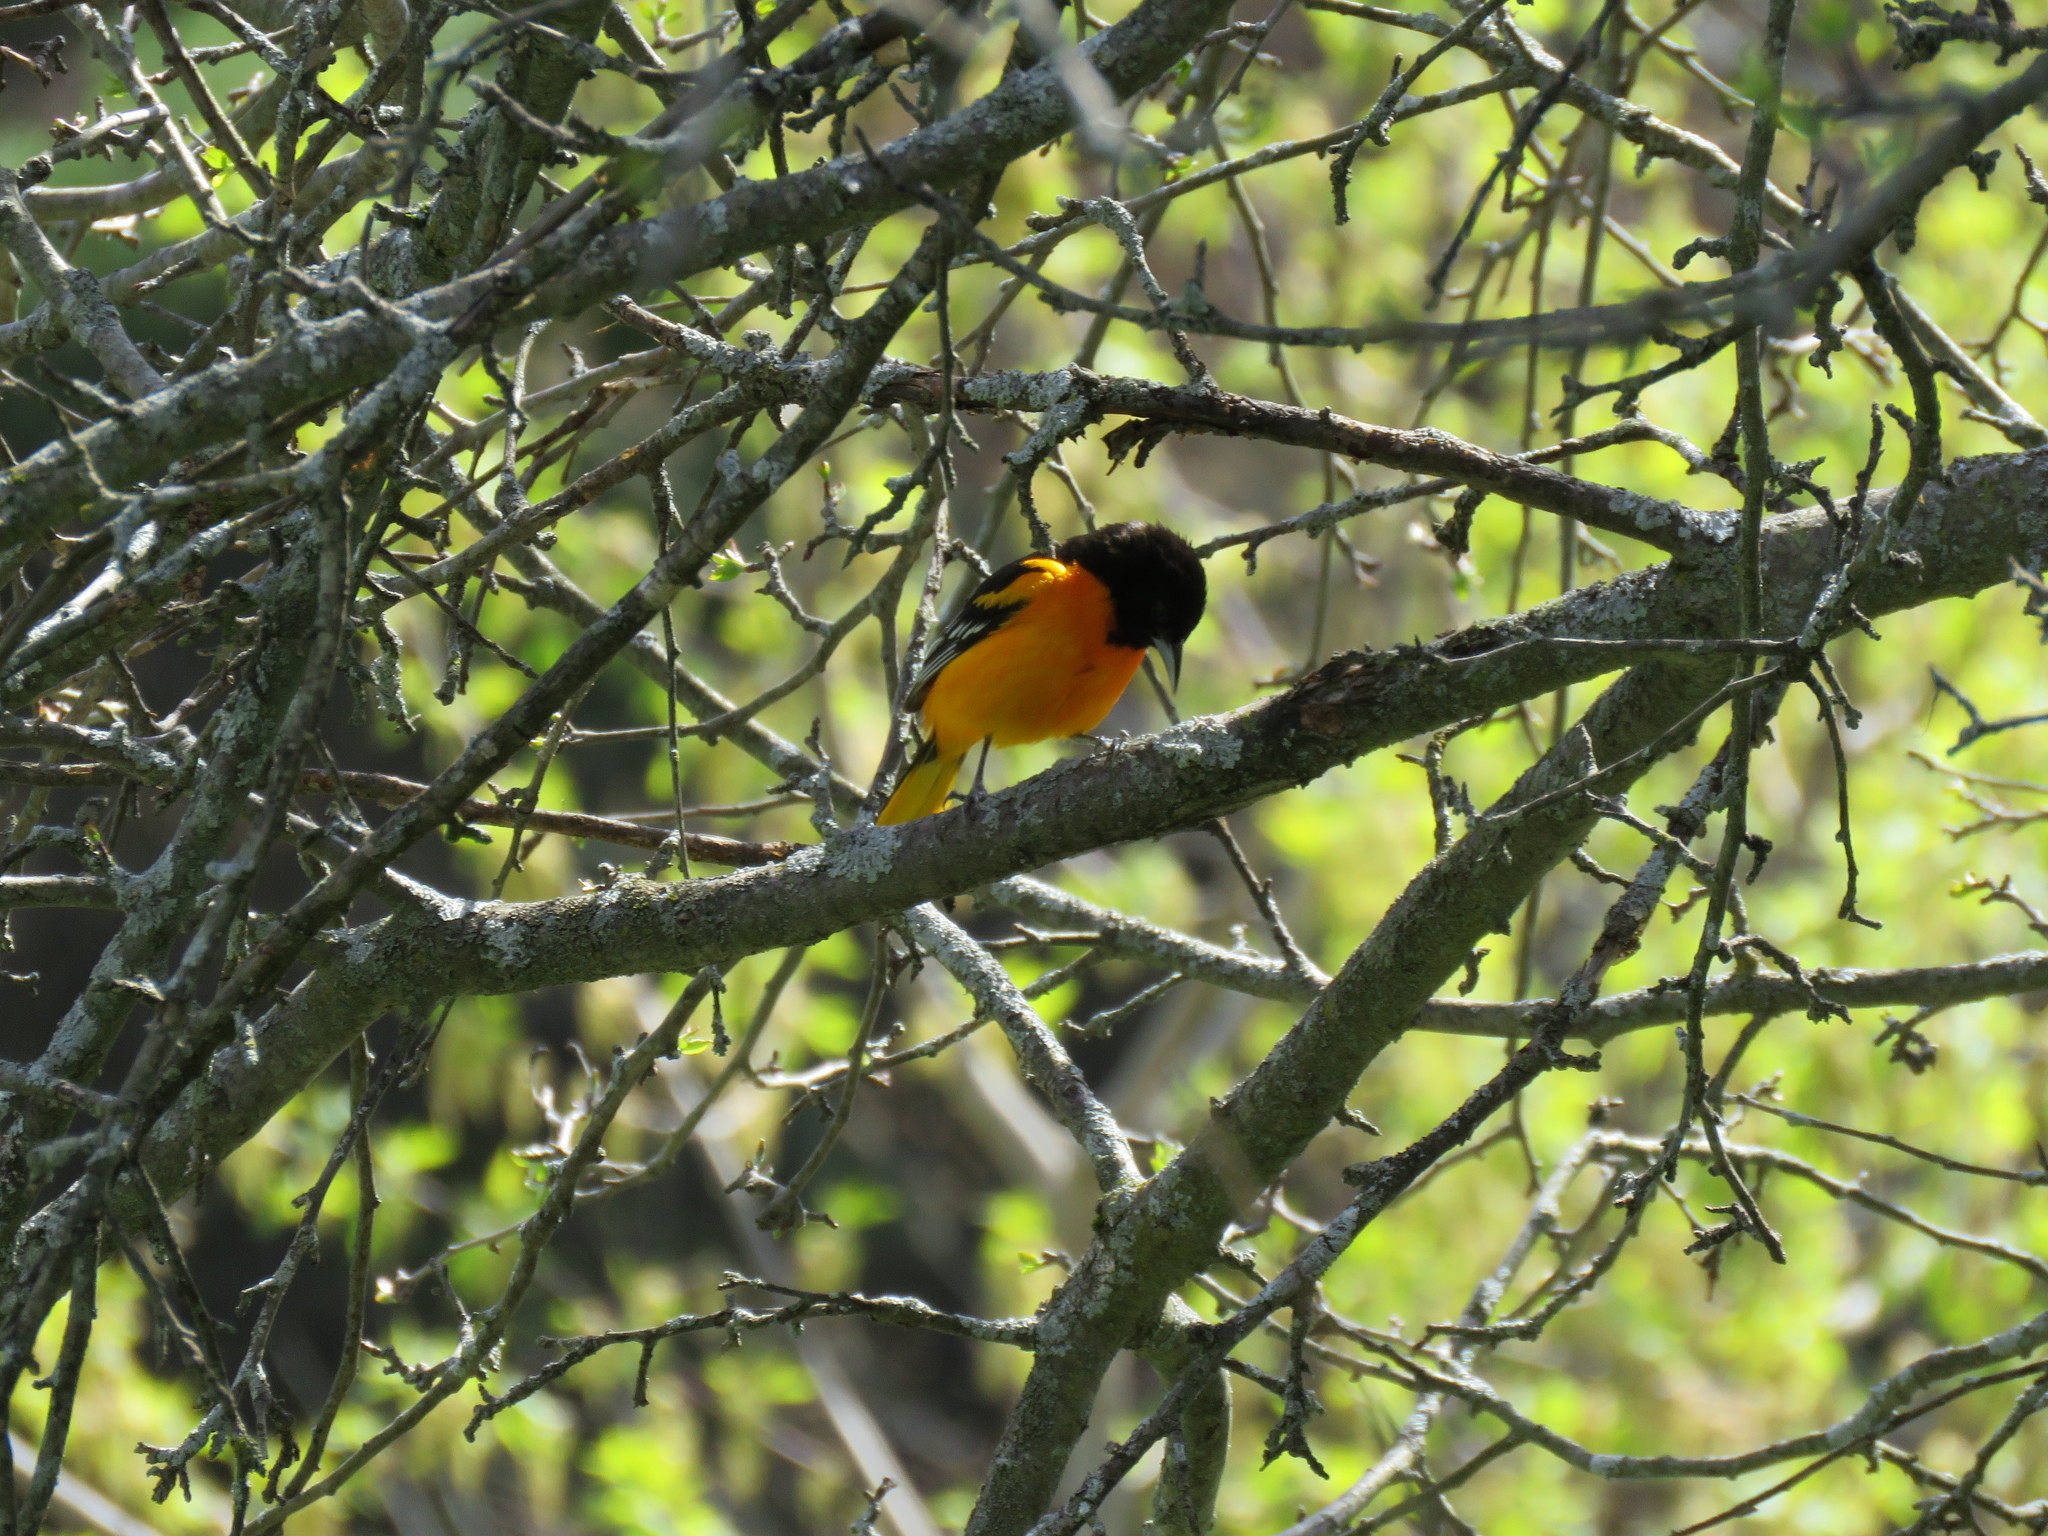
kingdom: Animalia
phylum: Chordata
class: Aves
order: Passeriformes
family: Icteridae
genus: Icterus
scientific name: Icterus galbula
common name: Baltimore oriole
